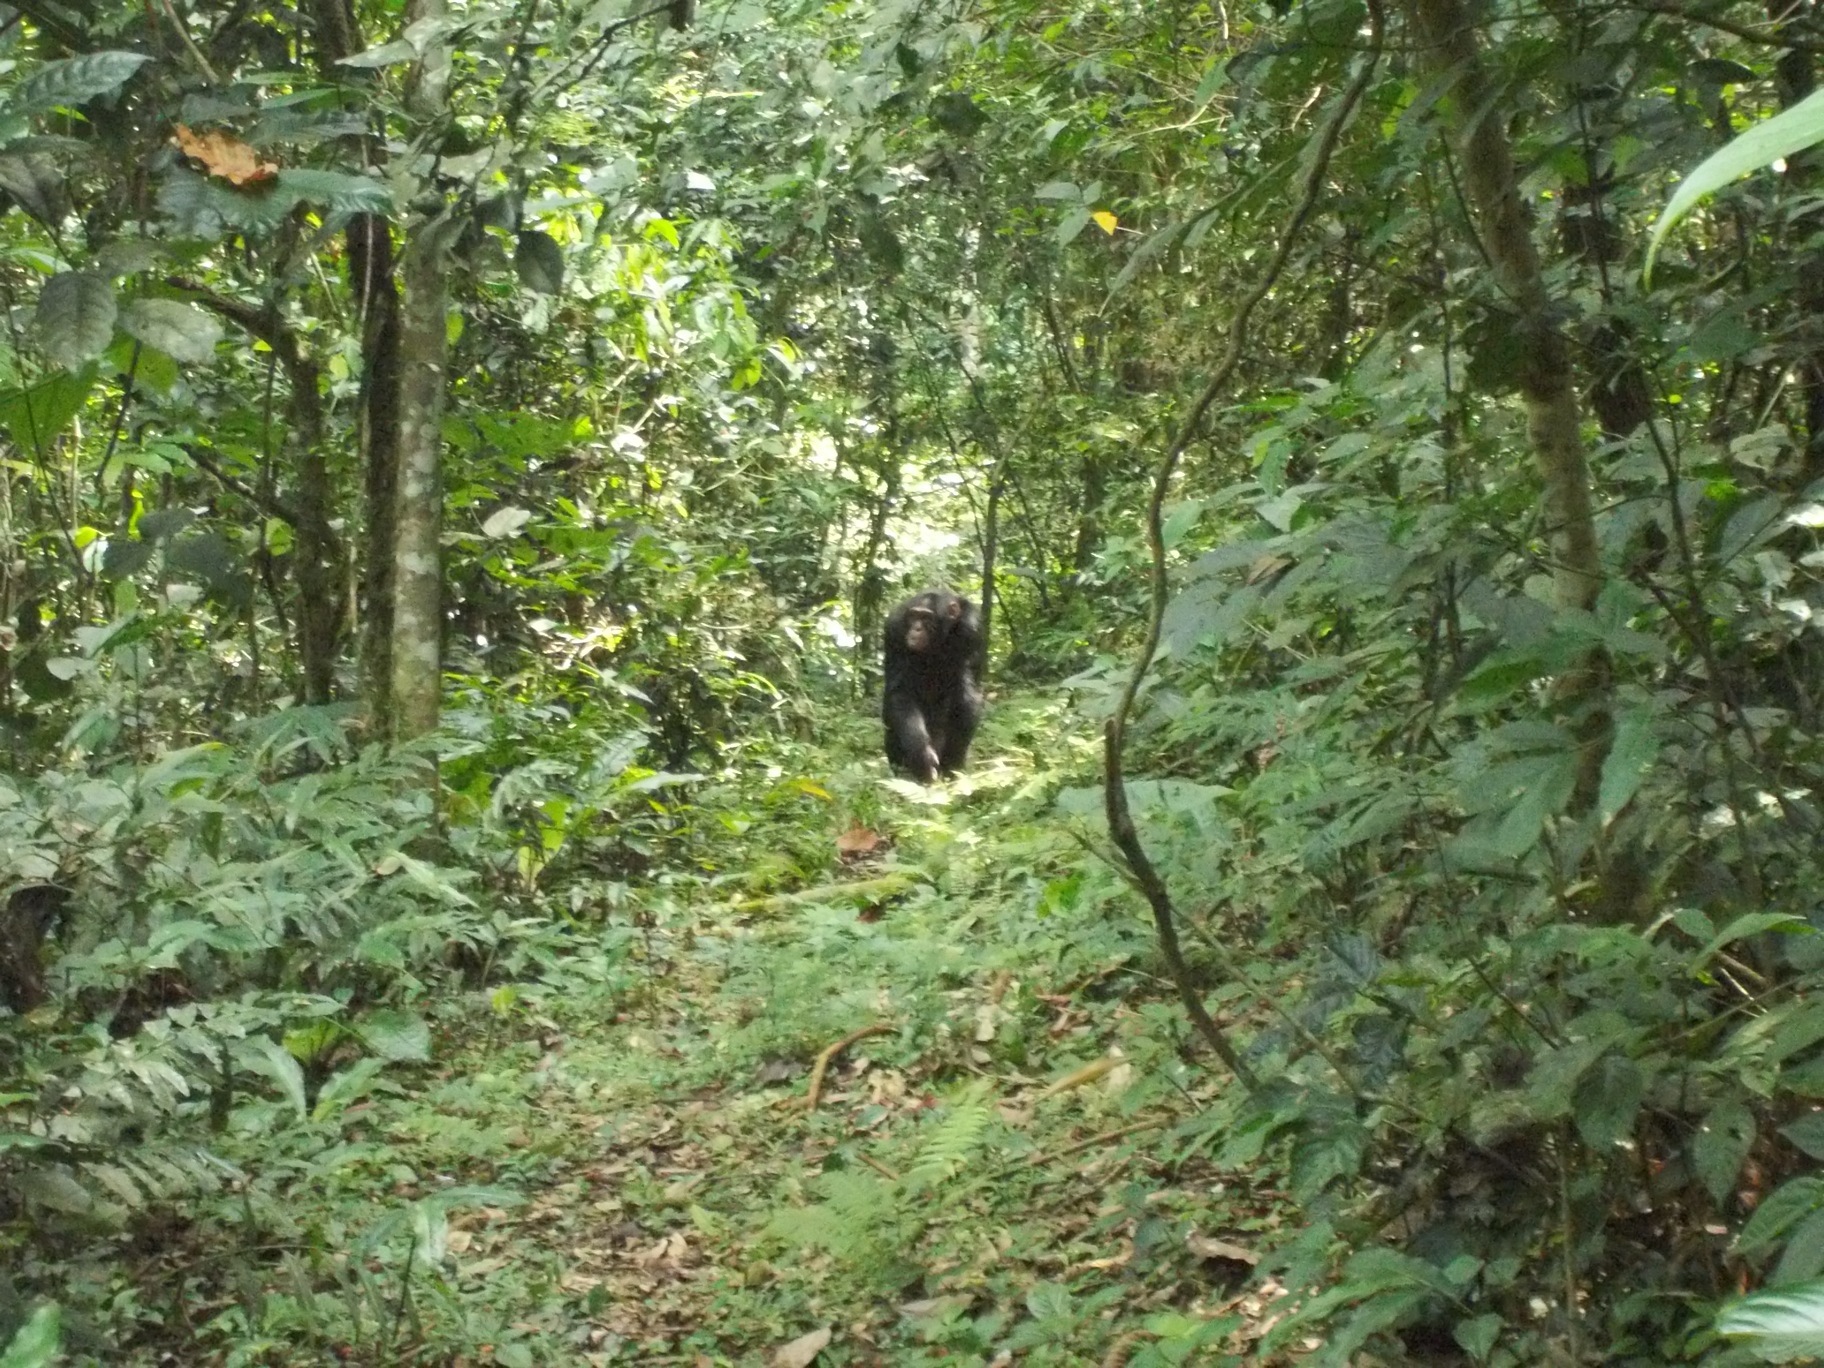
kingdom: Animalia
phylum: Chordata
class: Mammalia
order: Primates
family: Hominidae
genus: Pan
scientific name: Pan troglodytes
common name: Chimpanzee
